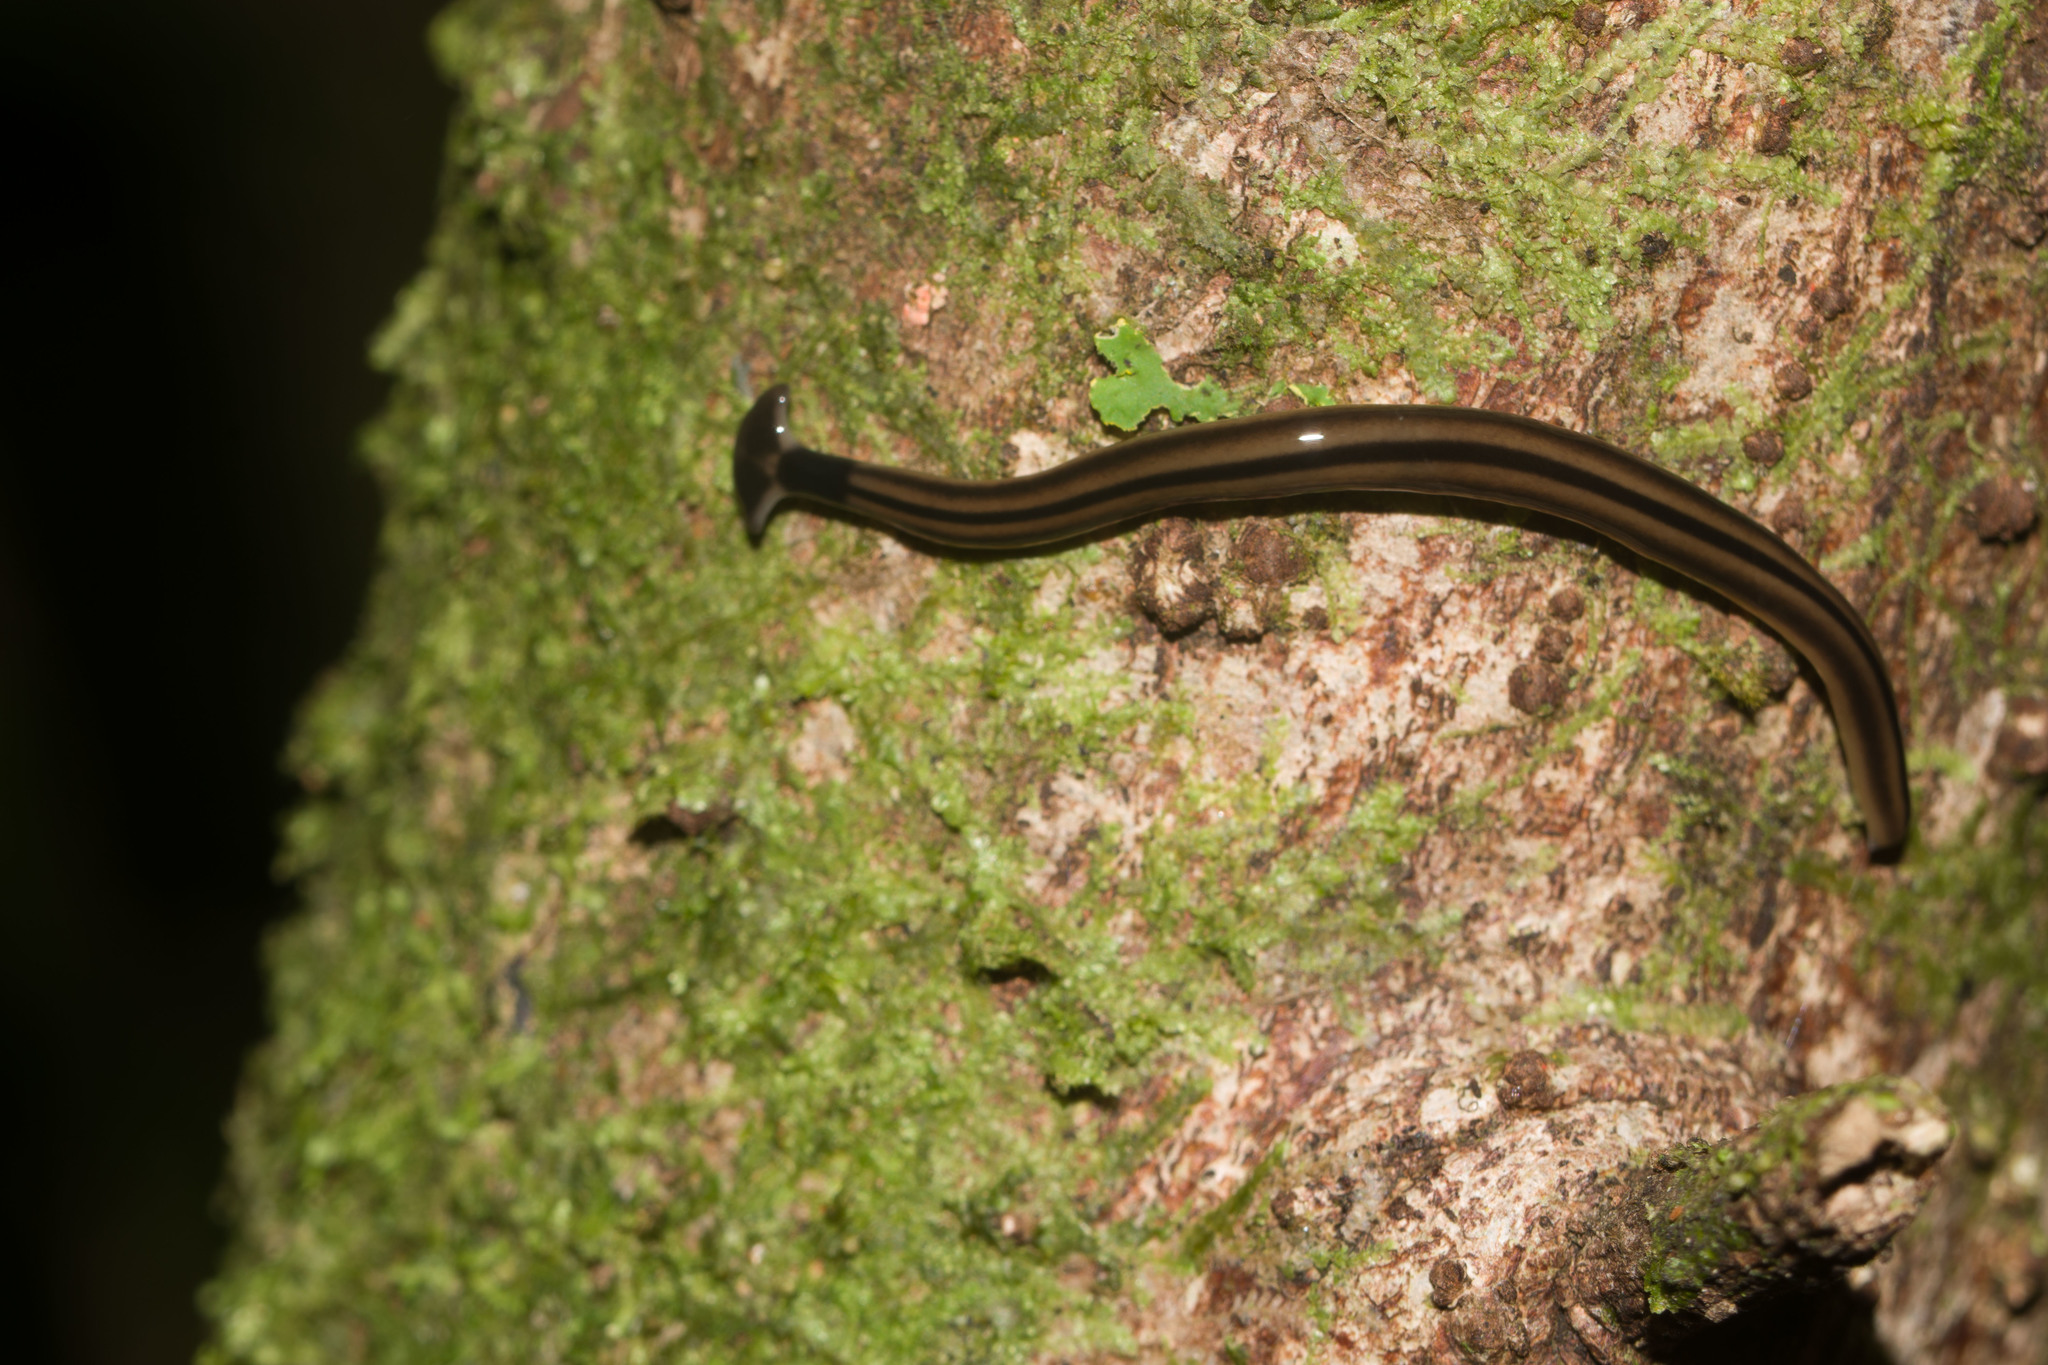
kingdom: Animalia
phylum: Platyhelminthes
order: Tricladida
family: Geoplanidae
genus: Bipalium
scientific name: Bipalium vagum
